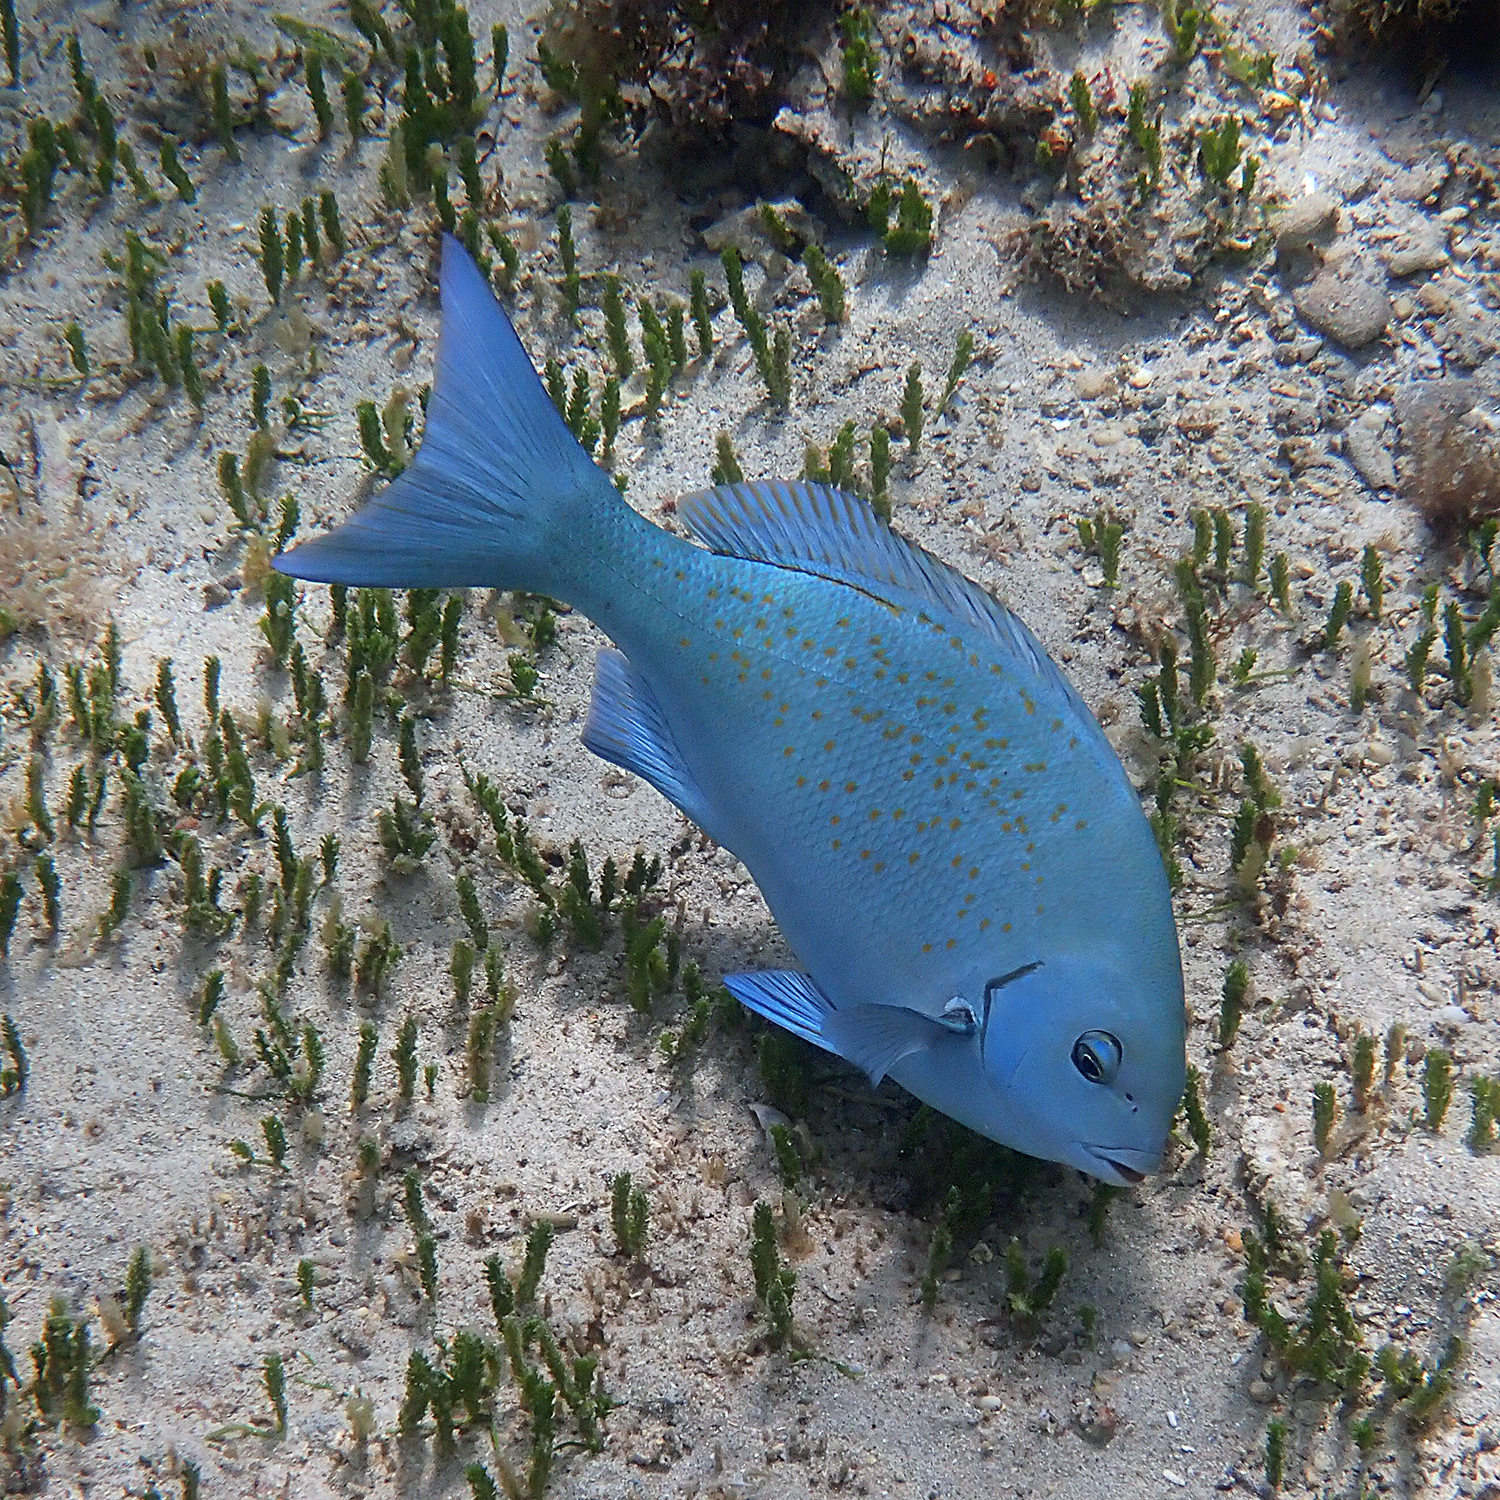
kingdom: Animalia
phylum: Chordata
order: Perciformes
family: Kyphosidae
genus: Girella
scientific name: Girella cyanea
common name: Bluefish
